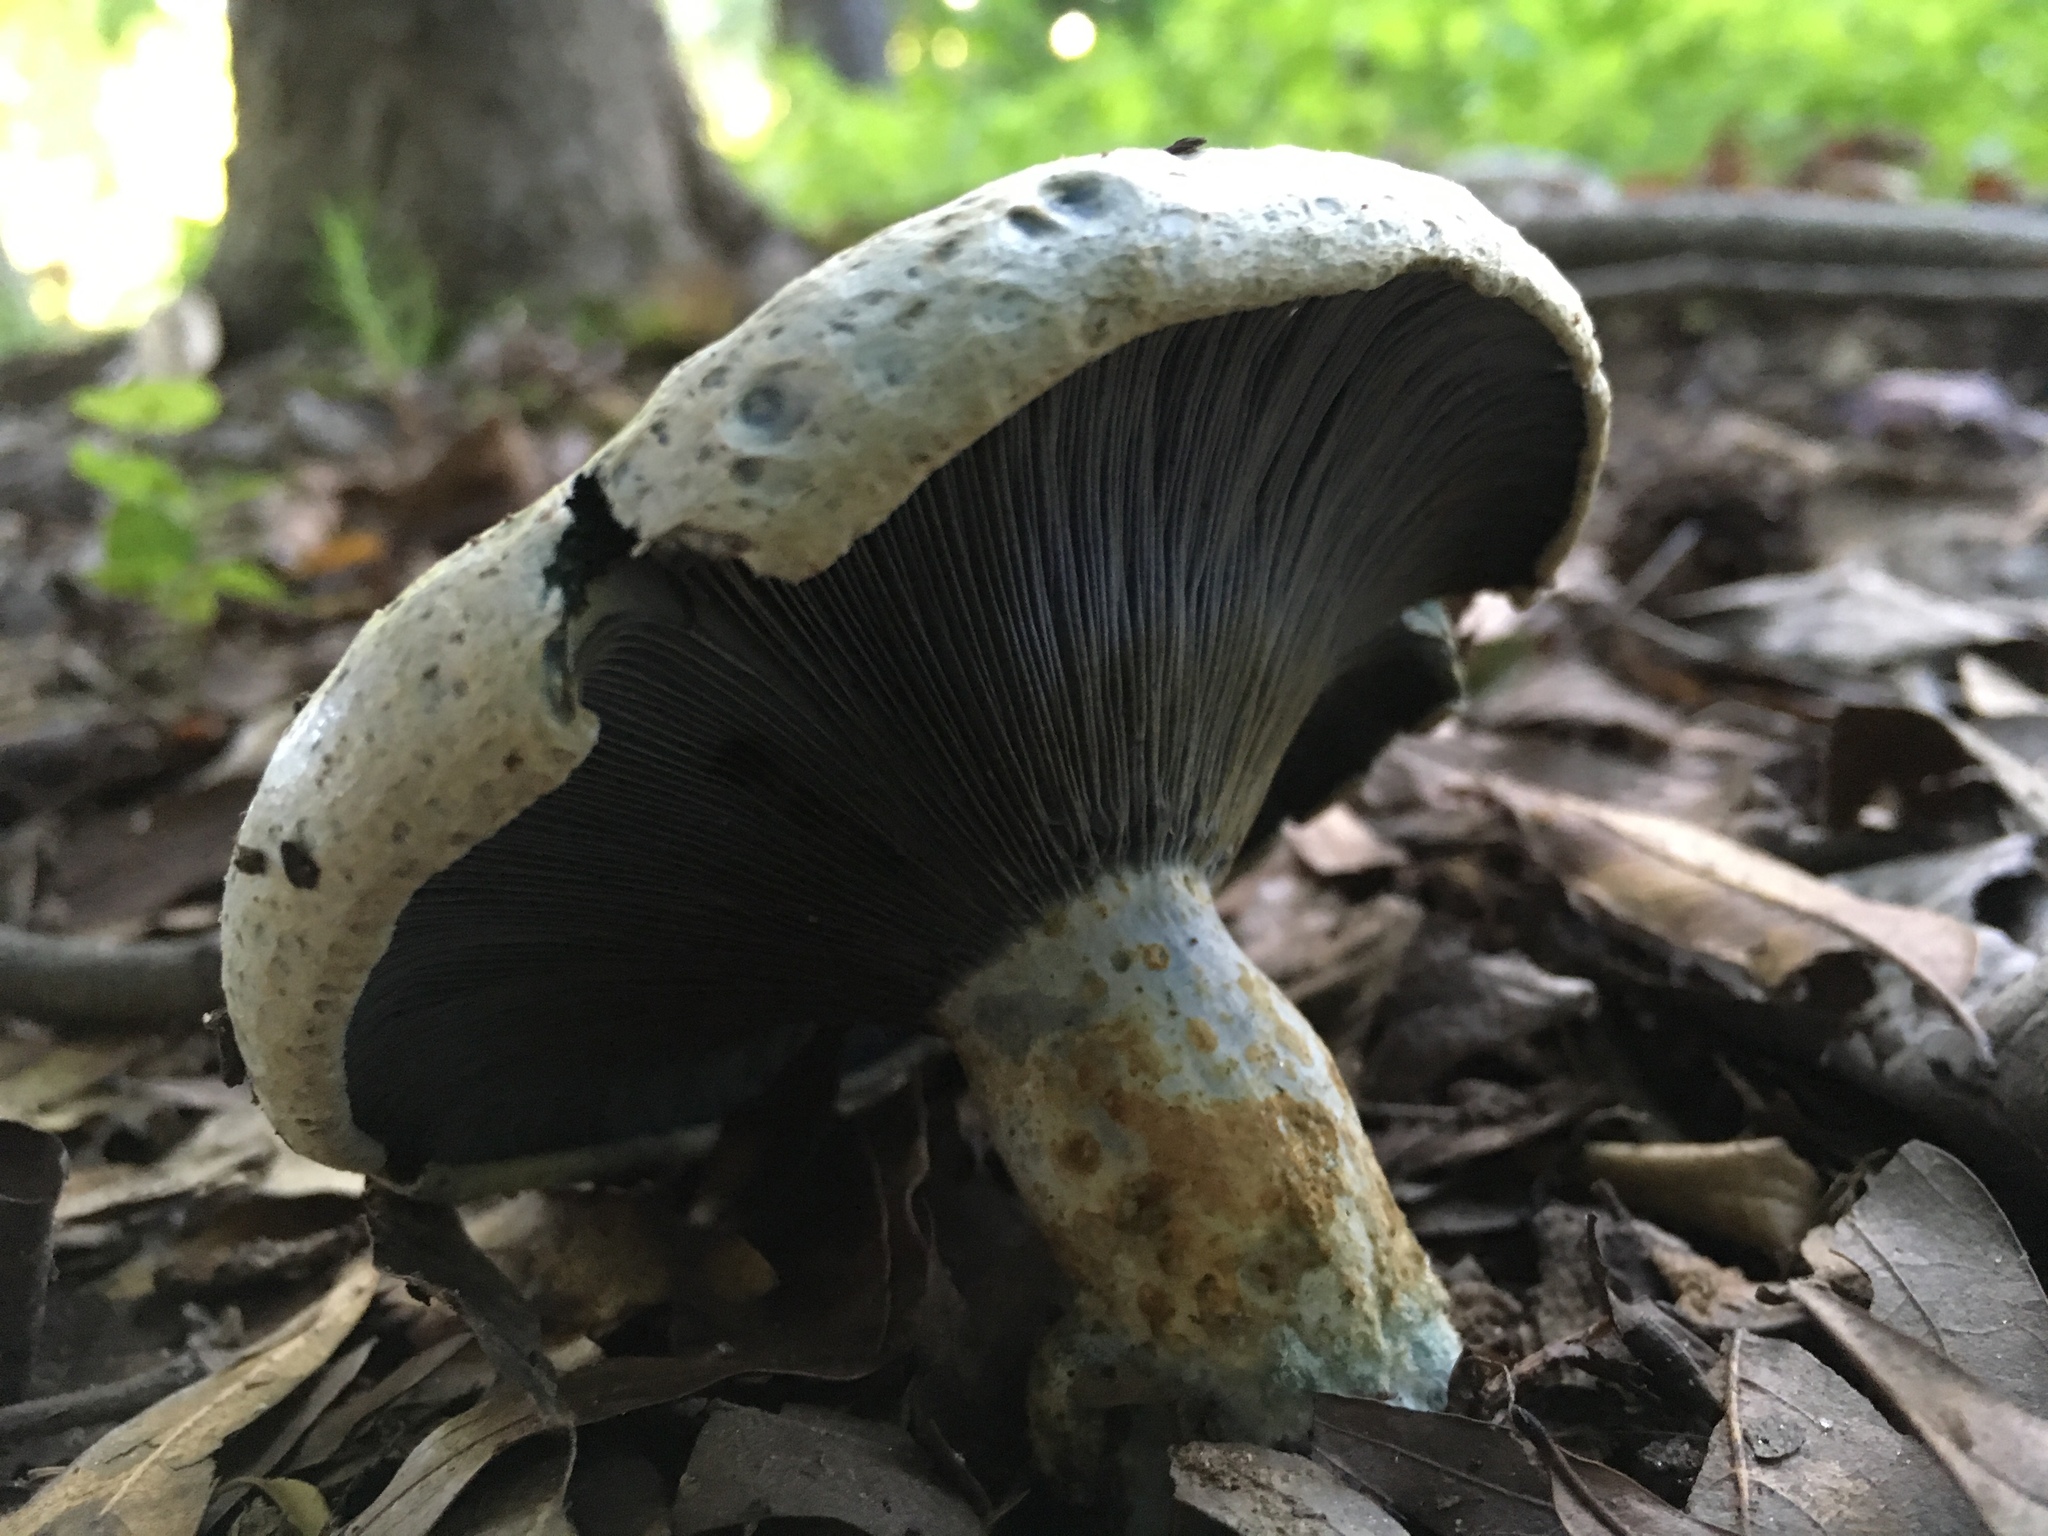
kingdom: Fungi
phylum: Basidiomycota
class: Agaricomycetes
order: Russulales
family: Russulaceae
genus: Lactarius
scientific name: Lactarius indigo
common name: Indigo milk cap
